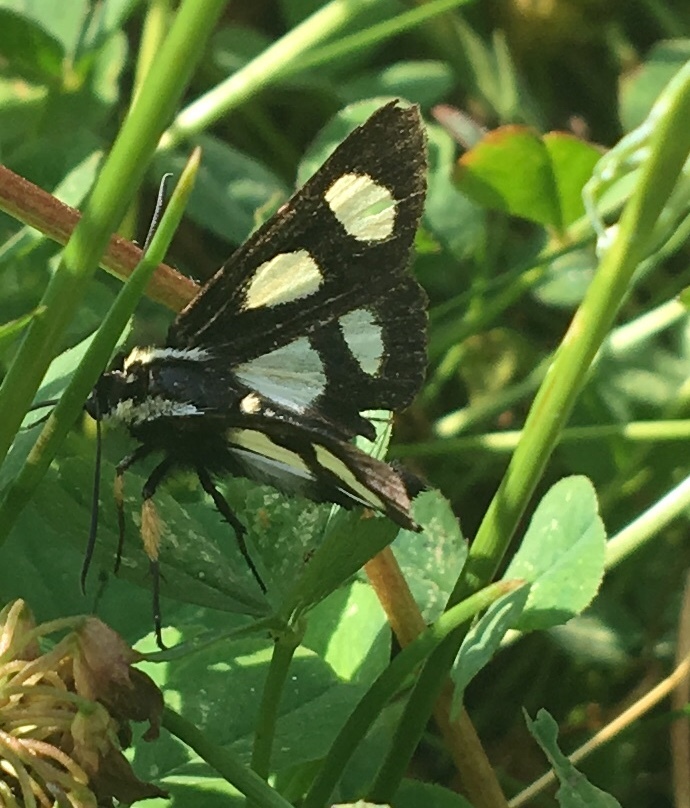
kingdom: Animalia
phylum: Arthropoda
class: Insecta
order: Lepidoptera
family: Noctuidae
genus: Alypia
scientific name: Alypia octomaculata
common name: Eight-spotted forester
